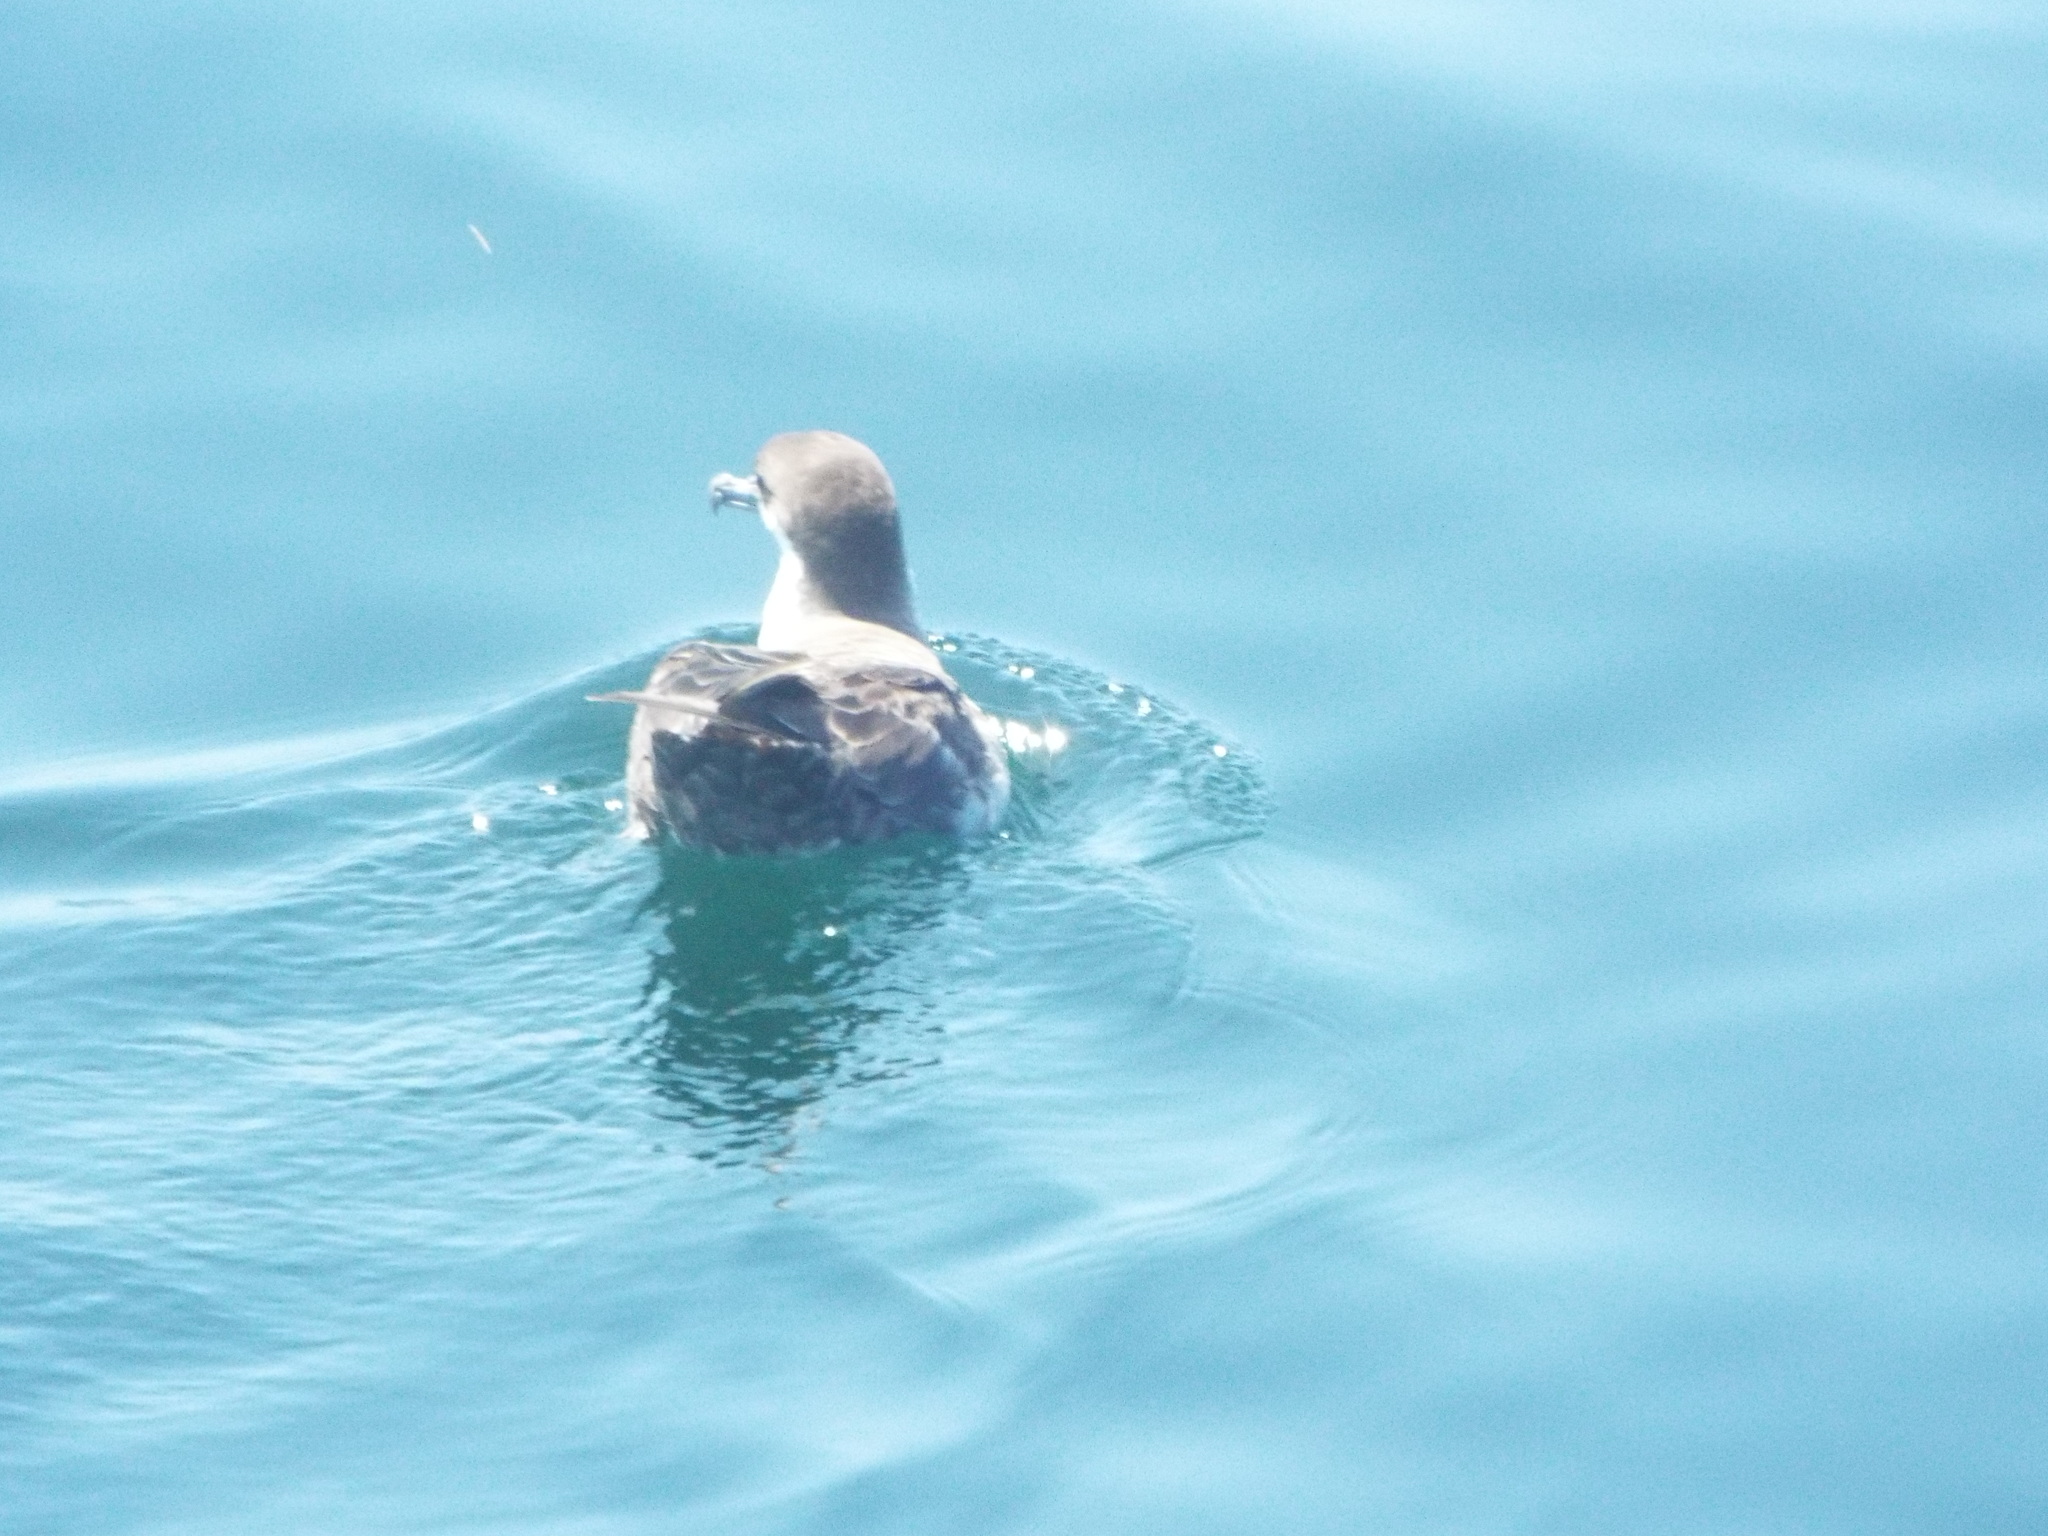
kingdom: Animalia
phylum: Chordata
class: Aves
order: Procellariiformes
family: Procellariidae
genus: Puffinus
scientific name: Puffinus gravis
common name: Great shearwater
